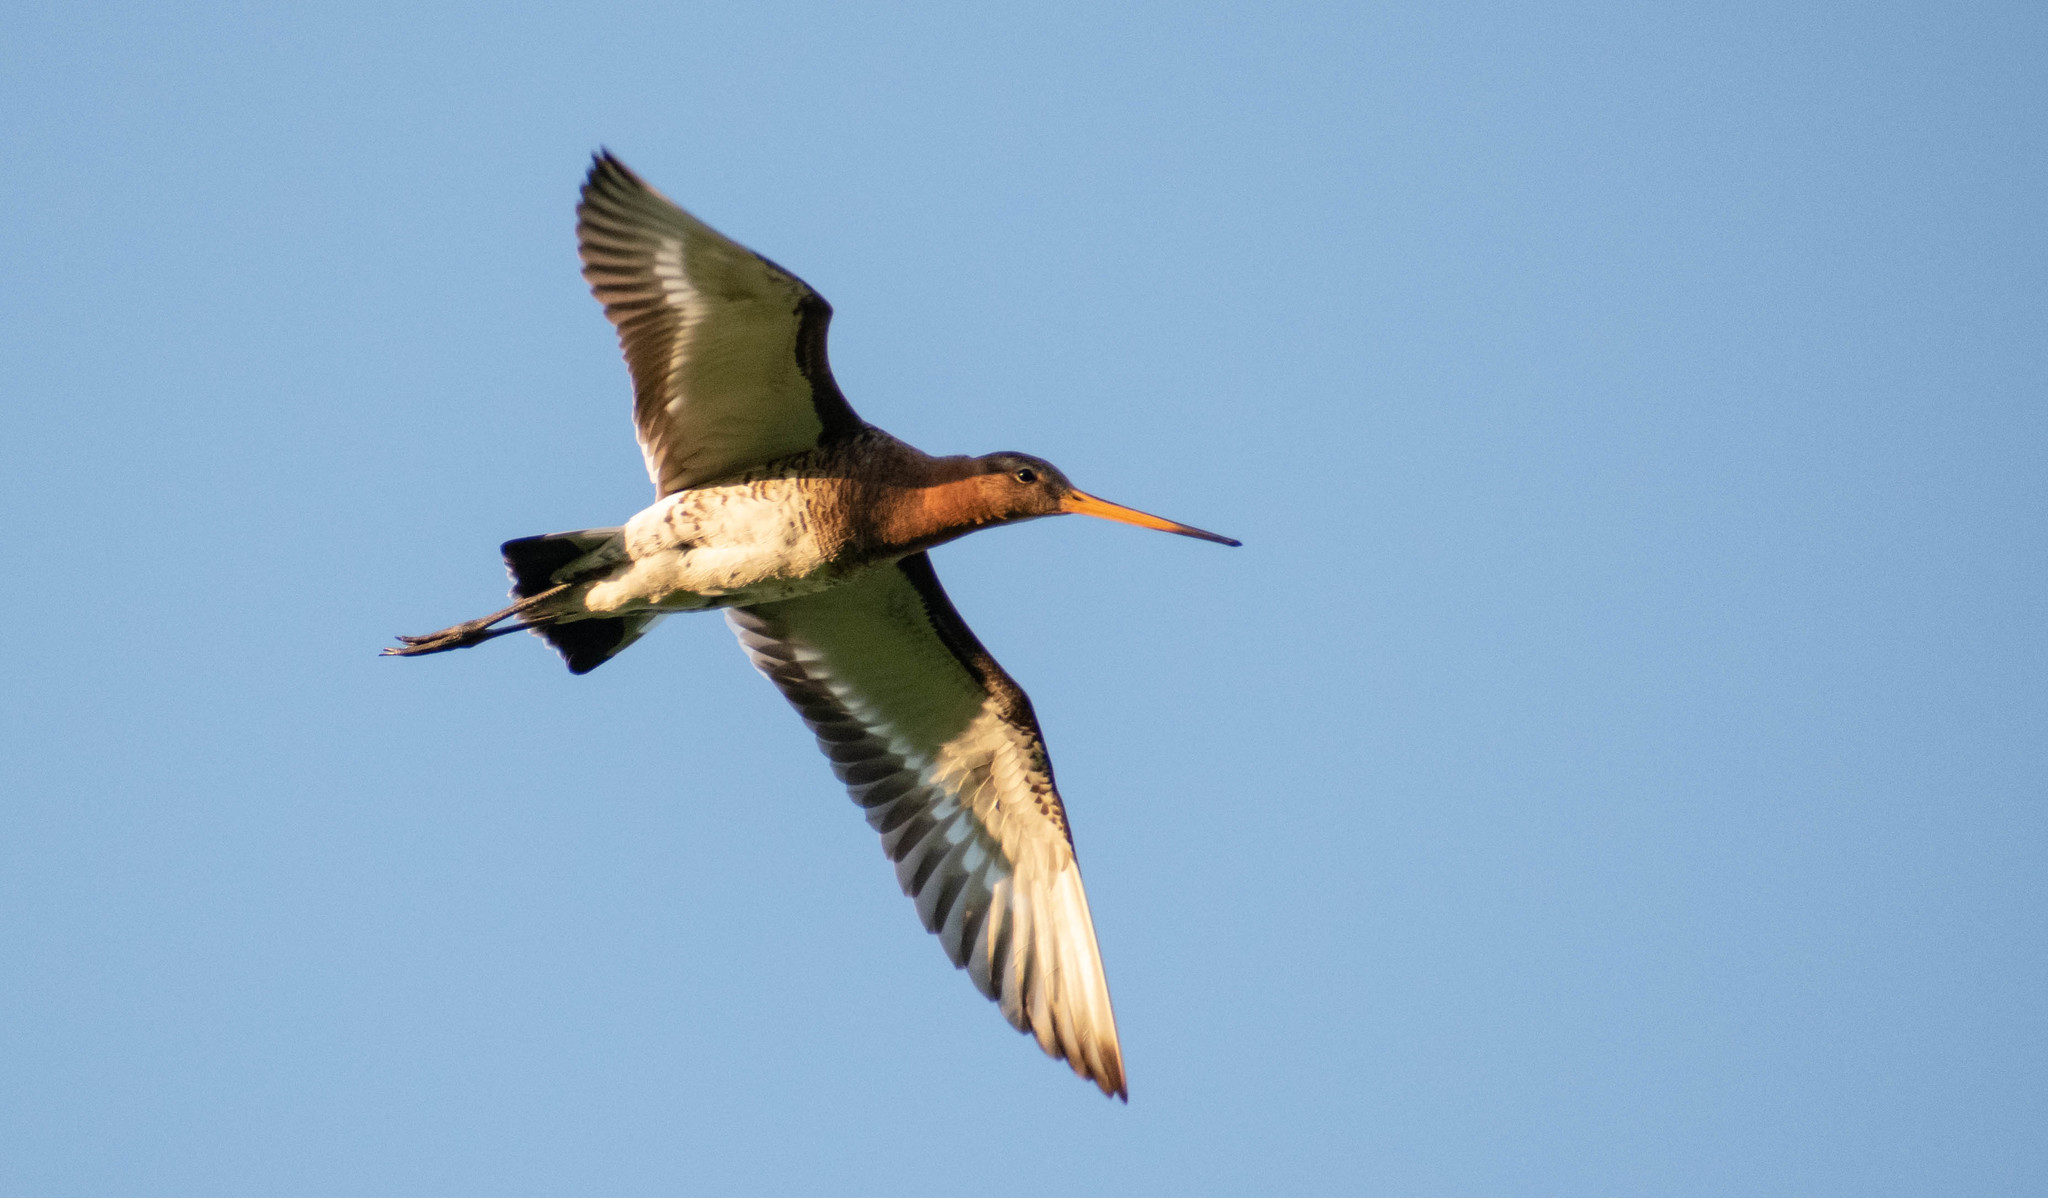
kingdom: Animalia
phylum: Chordata
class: Aves
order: Charadriiformes
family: Scolopacidae
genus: Limosa
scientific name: Limosa limosa
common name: Black-tailed godwit
